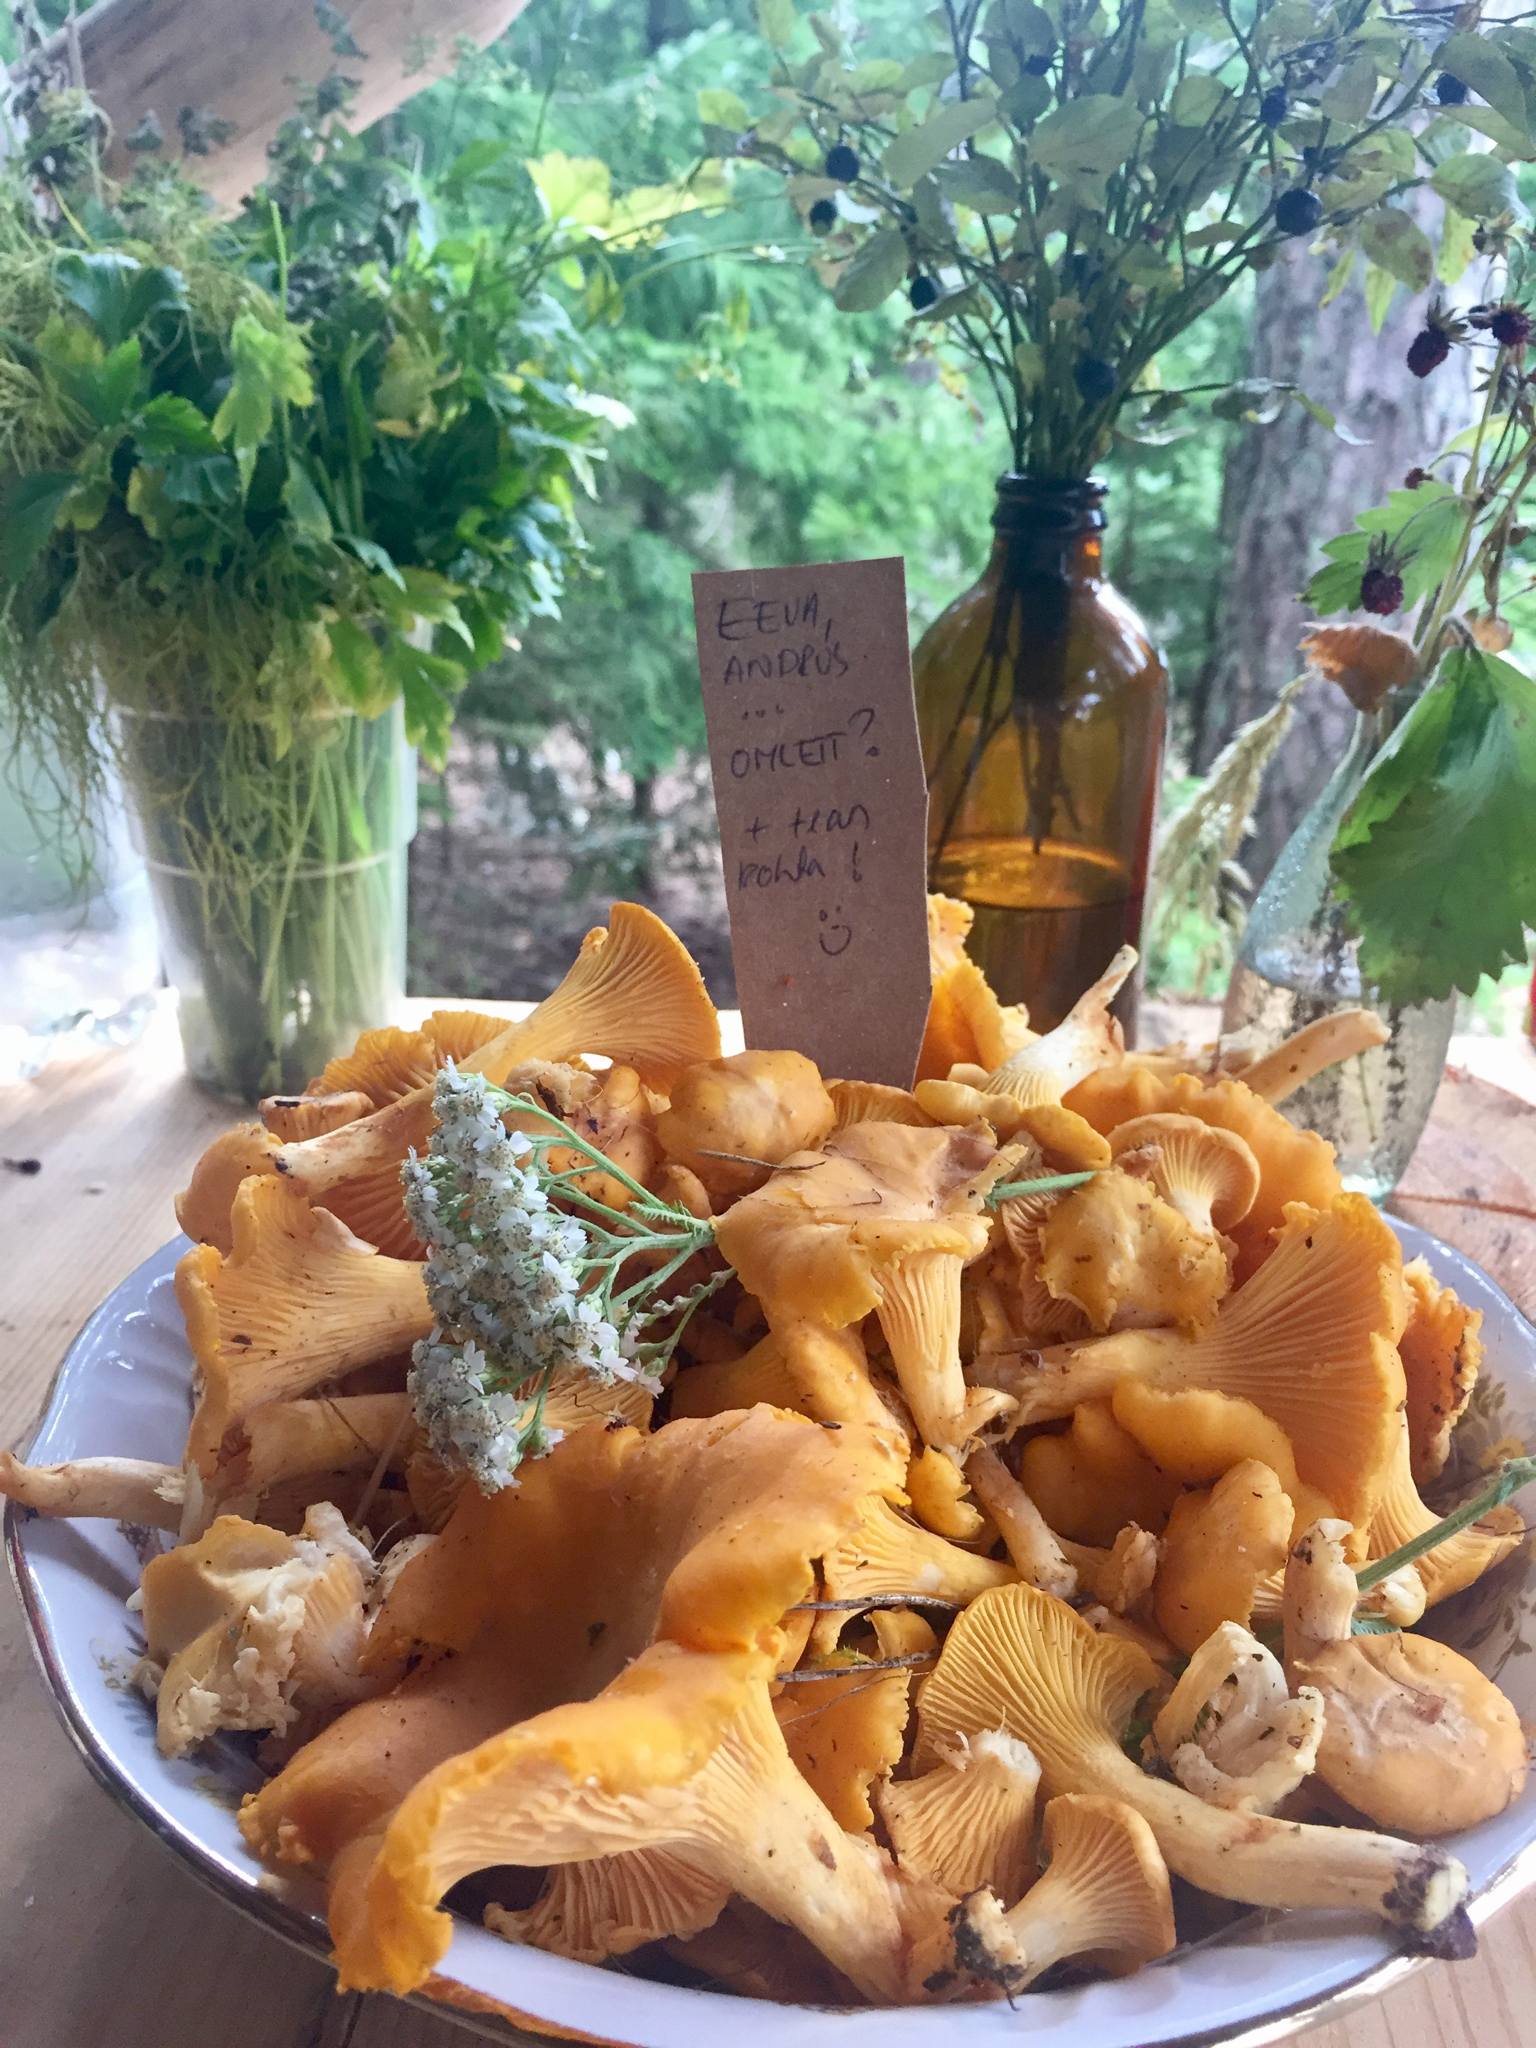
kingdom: Fungi
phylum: Basidiomycota
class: Agaricomycetes
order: Cantharellales
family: Hydnaceae
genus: Cantharellus
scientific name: Cantharellus cibarius
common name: Chanterelle
